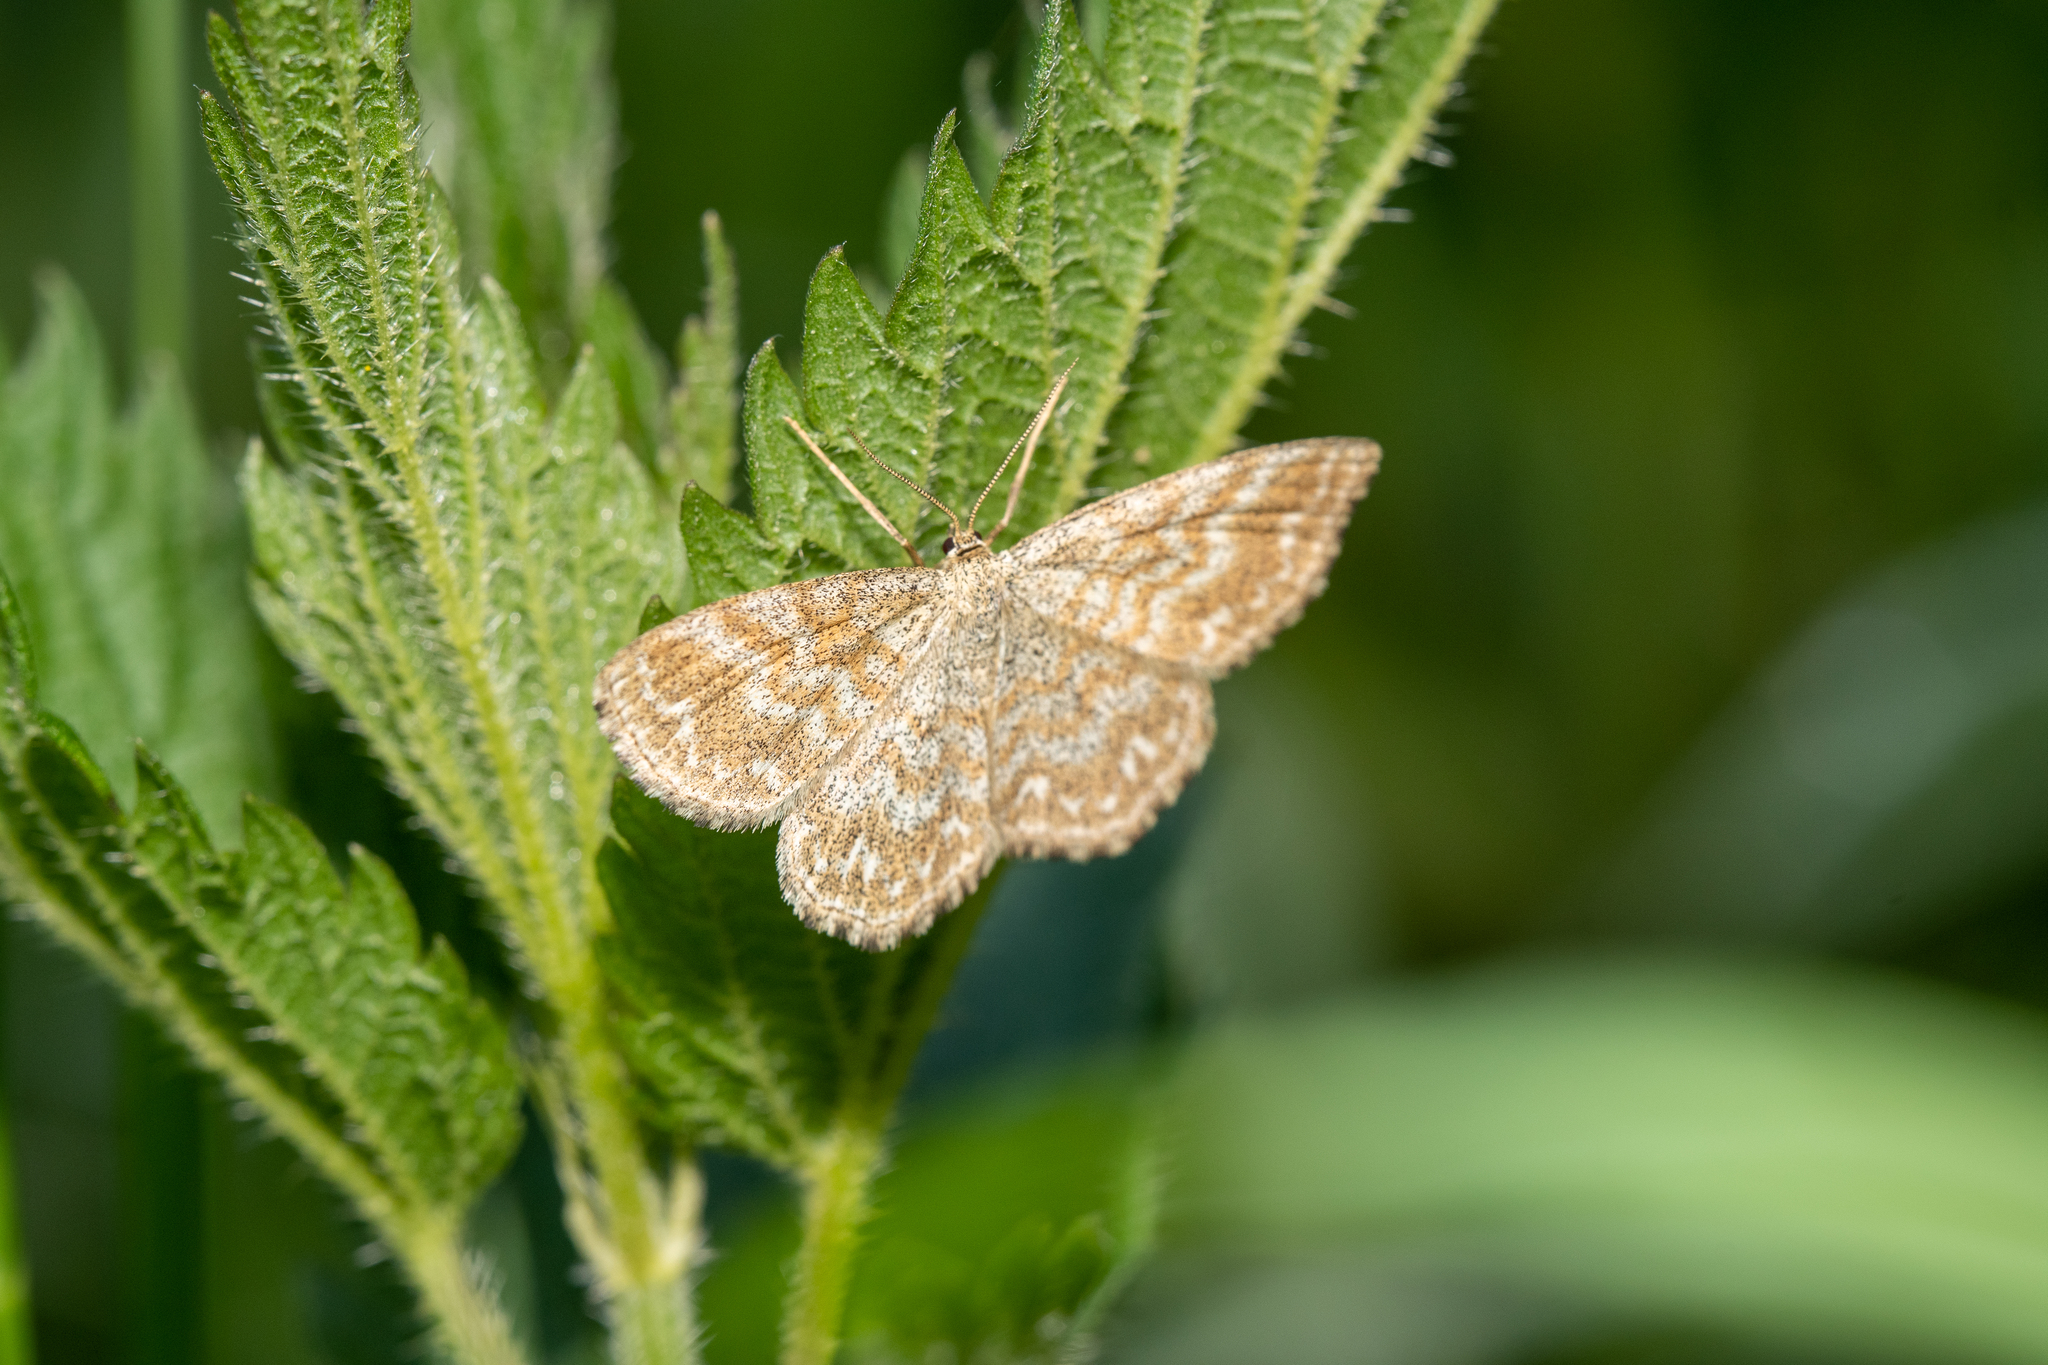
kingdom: Animalia
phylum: Arthropoda
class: Insecta
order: Lepidoptera
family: Geometridae
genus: Scopula
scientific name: Scopula immorata
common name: Lewes wave
